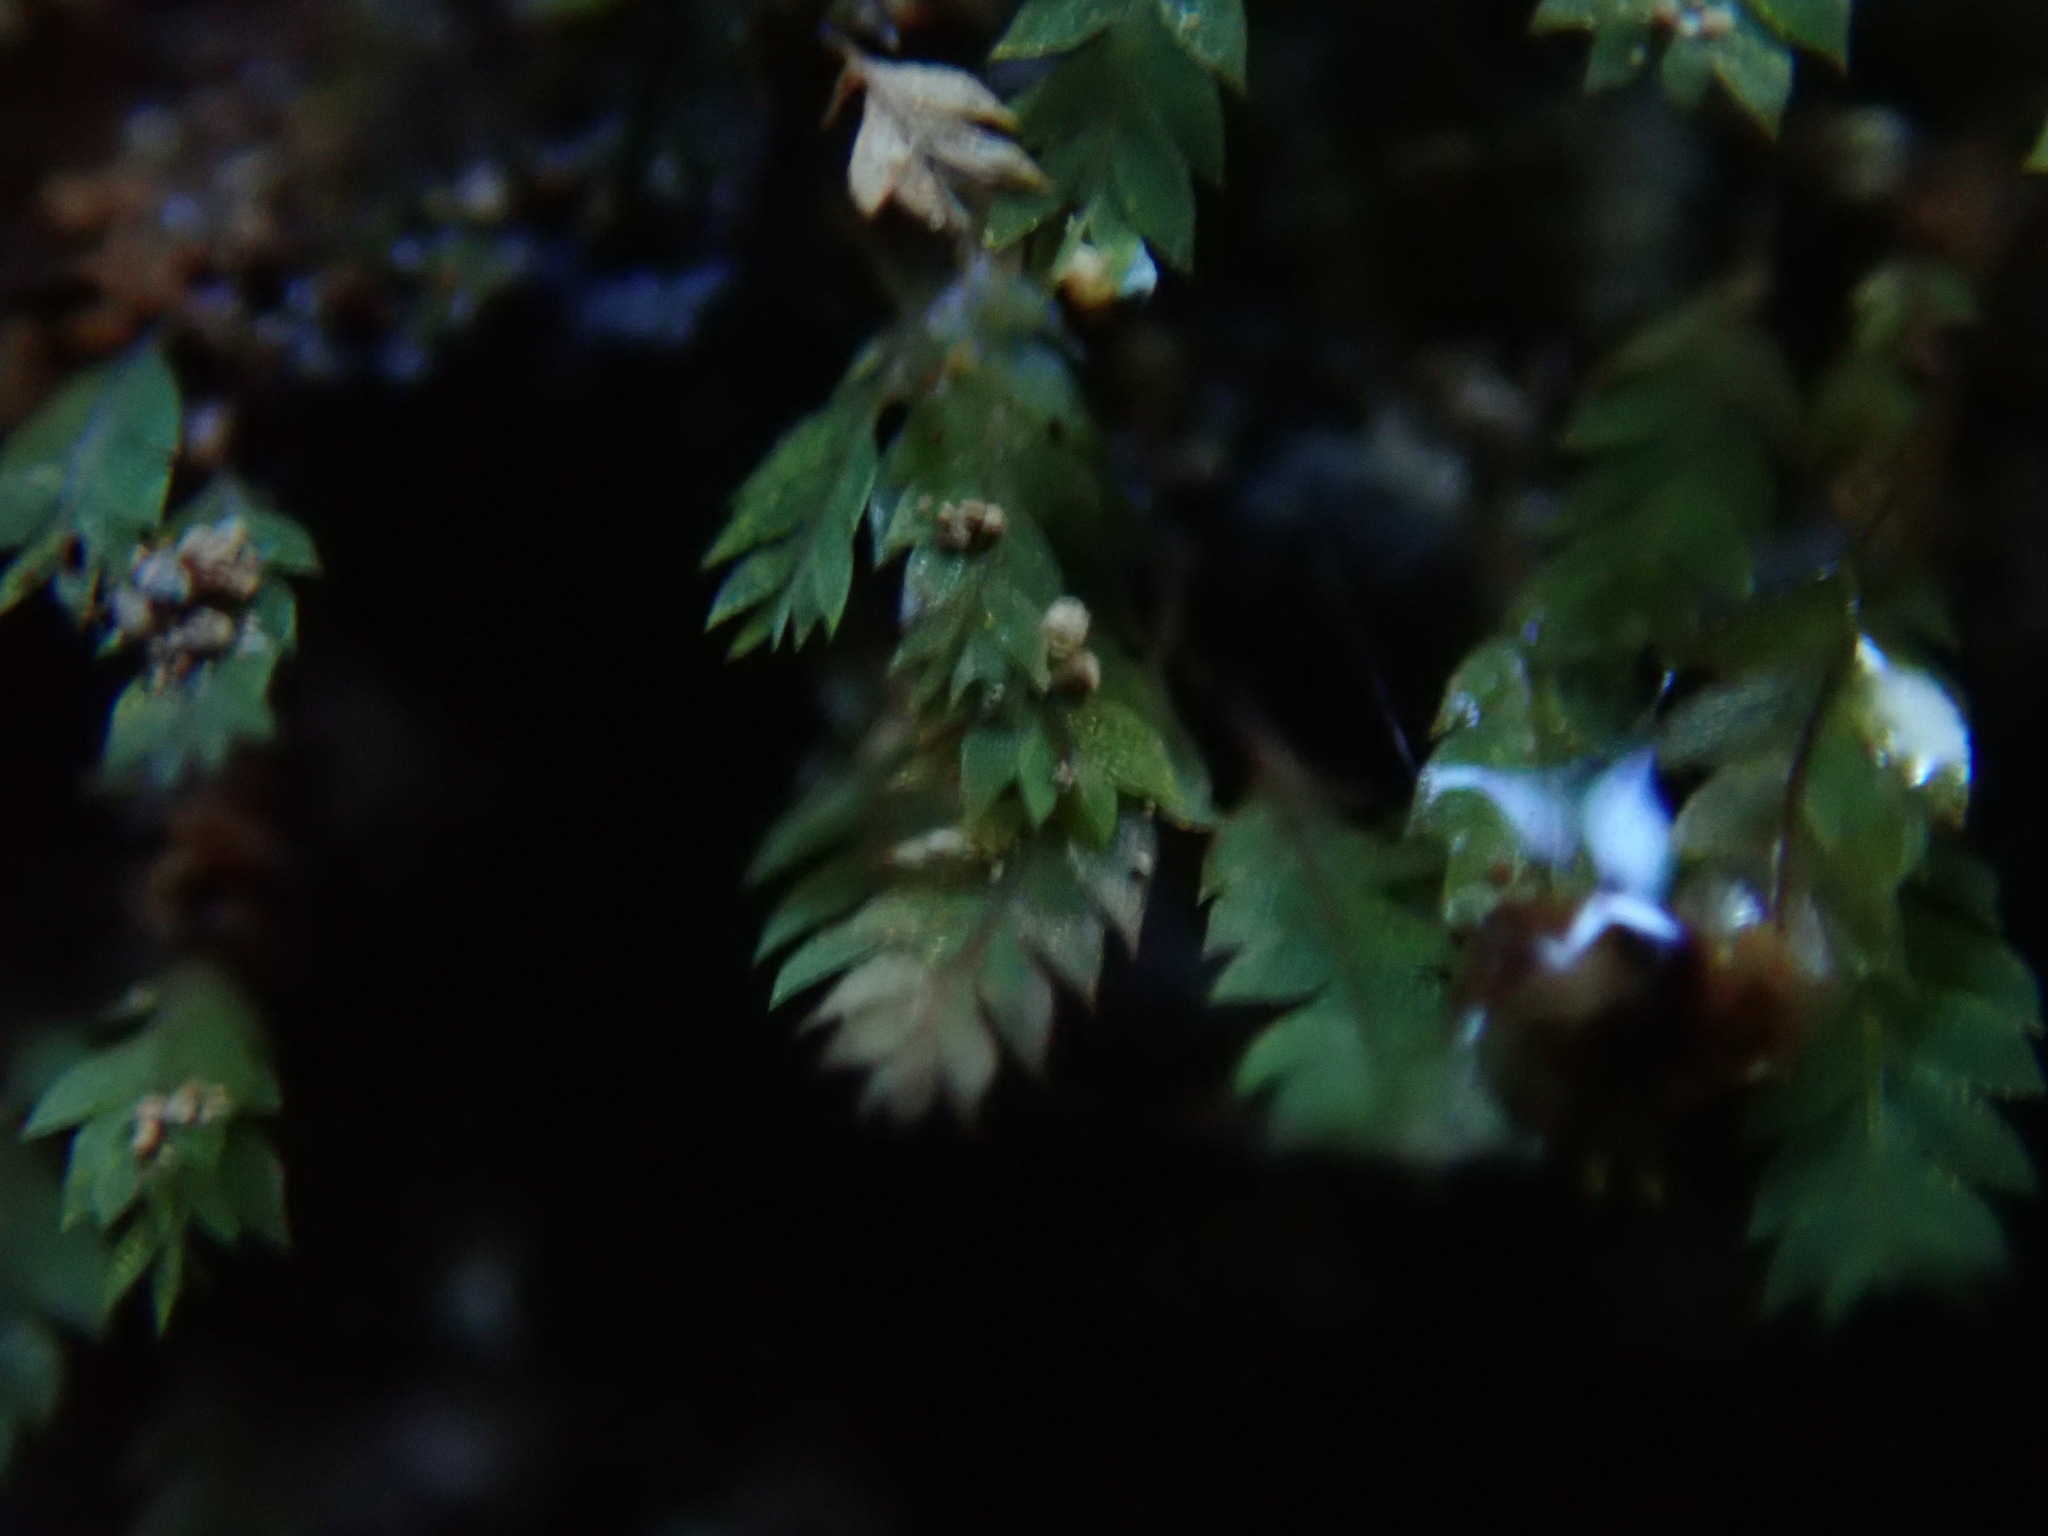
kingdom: Plantae
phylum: Bryophyta
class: Bryopsida
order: Dicranales
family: Schistostegaceae
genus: Schistostega
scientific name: Schistostega pennata
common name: Luminous moss
